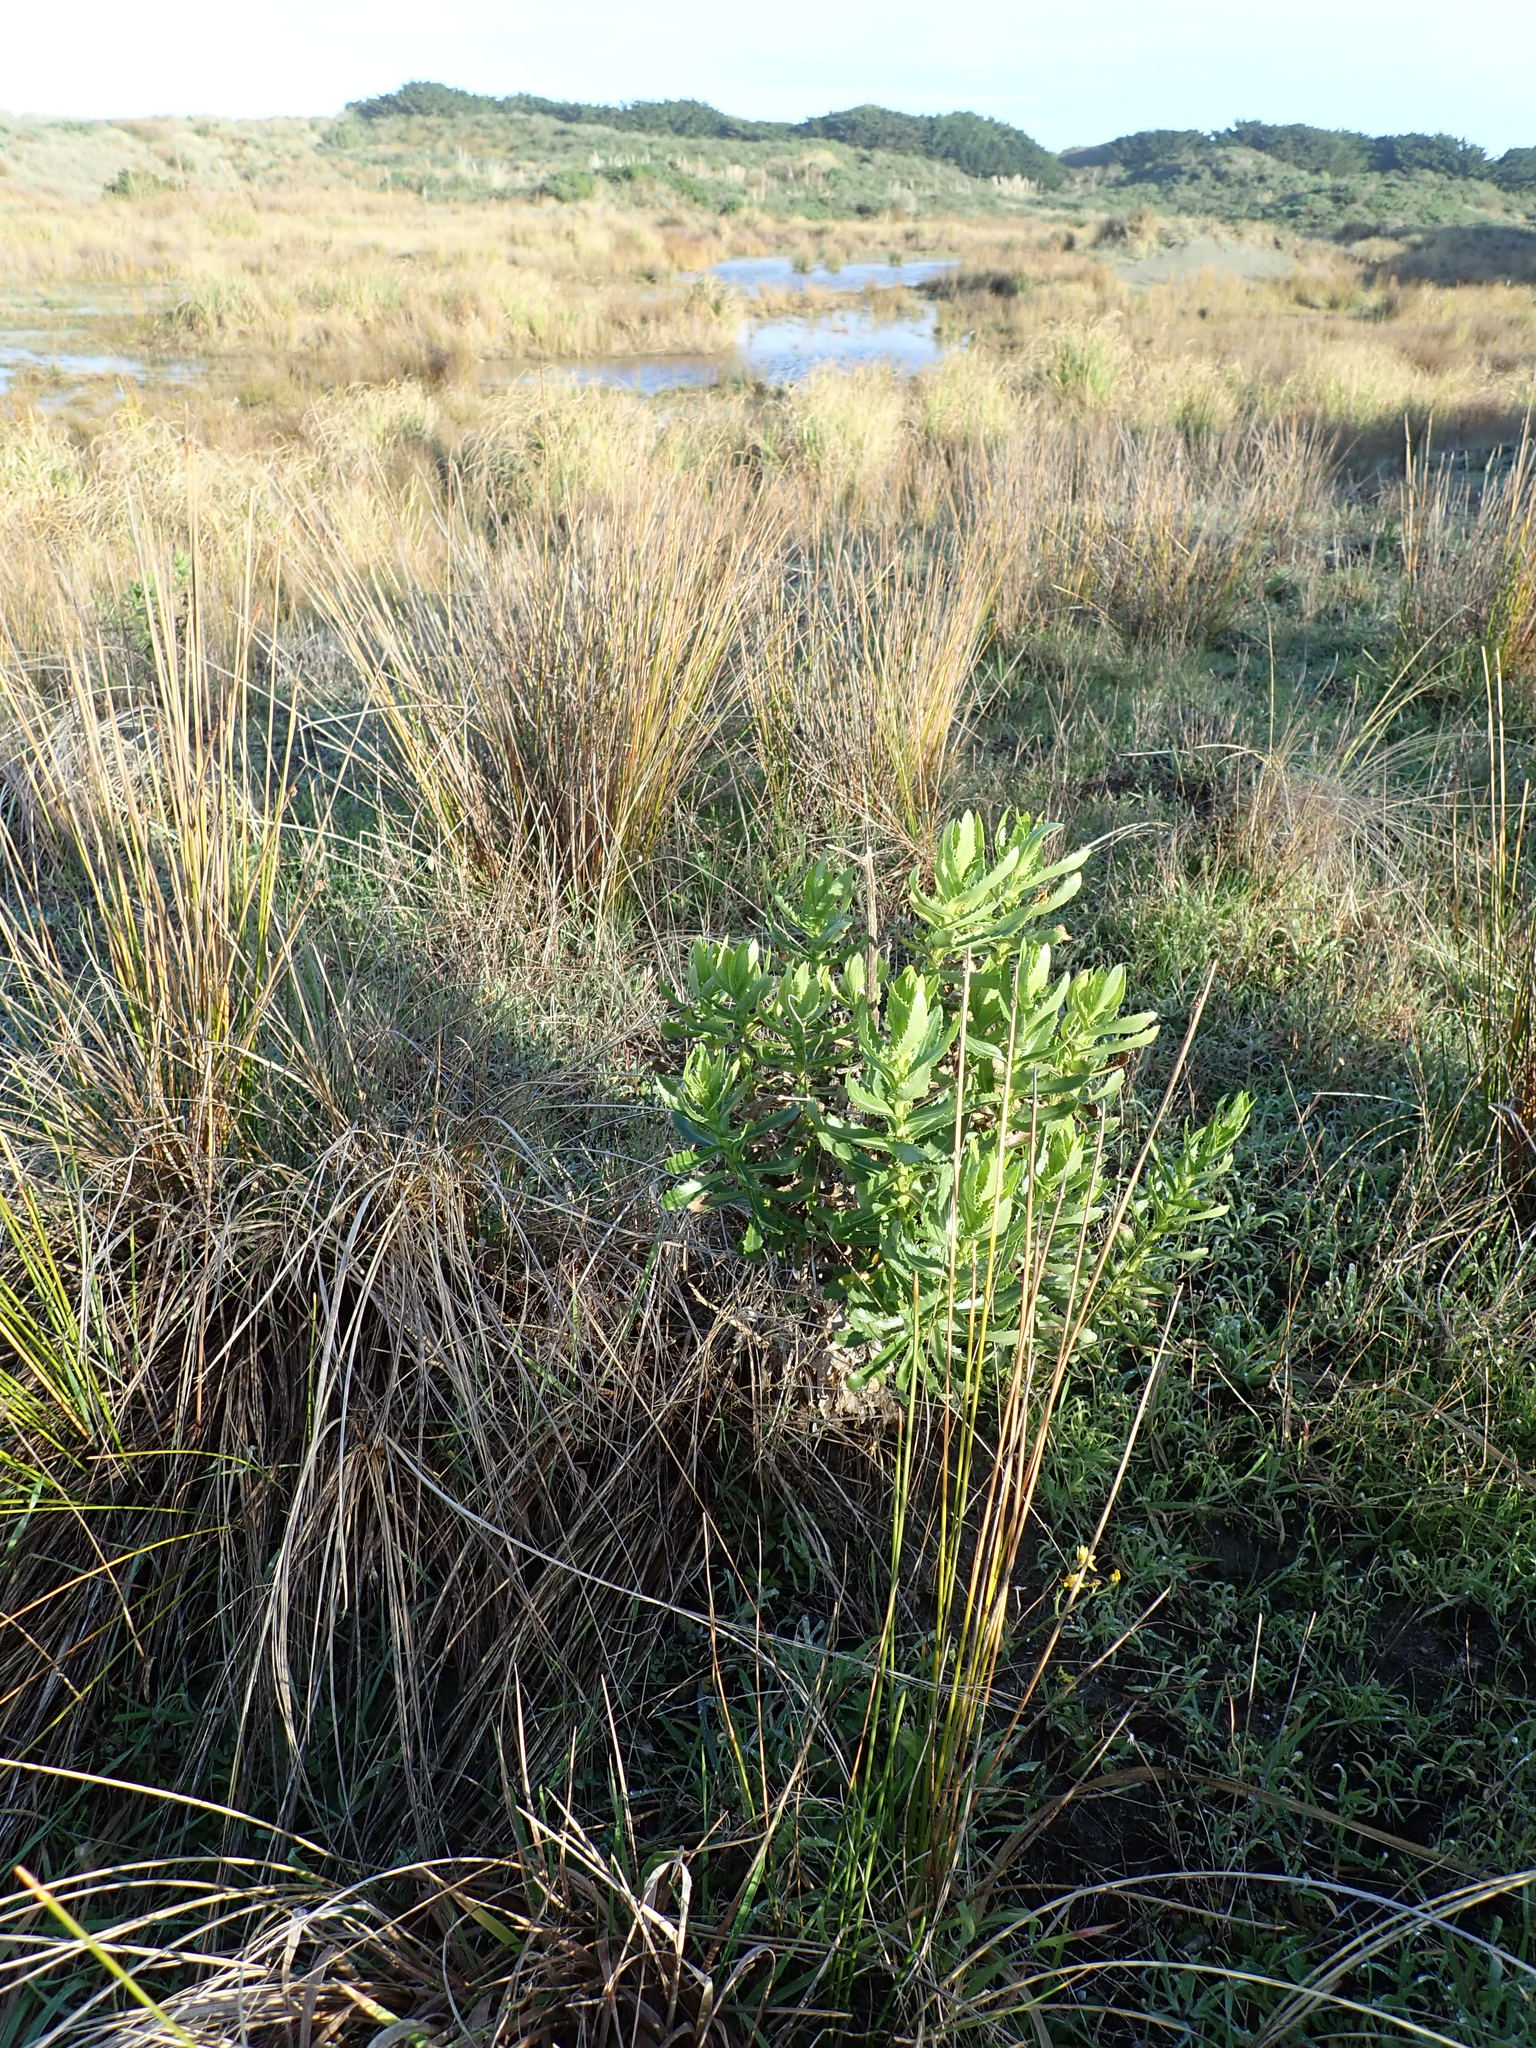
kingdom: Plantae
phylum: Tracheophyta
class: Magnoliopsida
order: Asterales
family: Asteraceae
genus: Senecio
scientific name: Senecio glastifolius
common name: Woad-leaved ragwort
